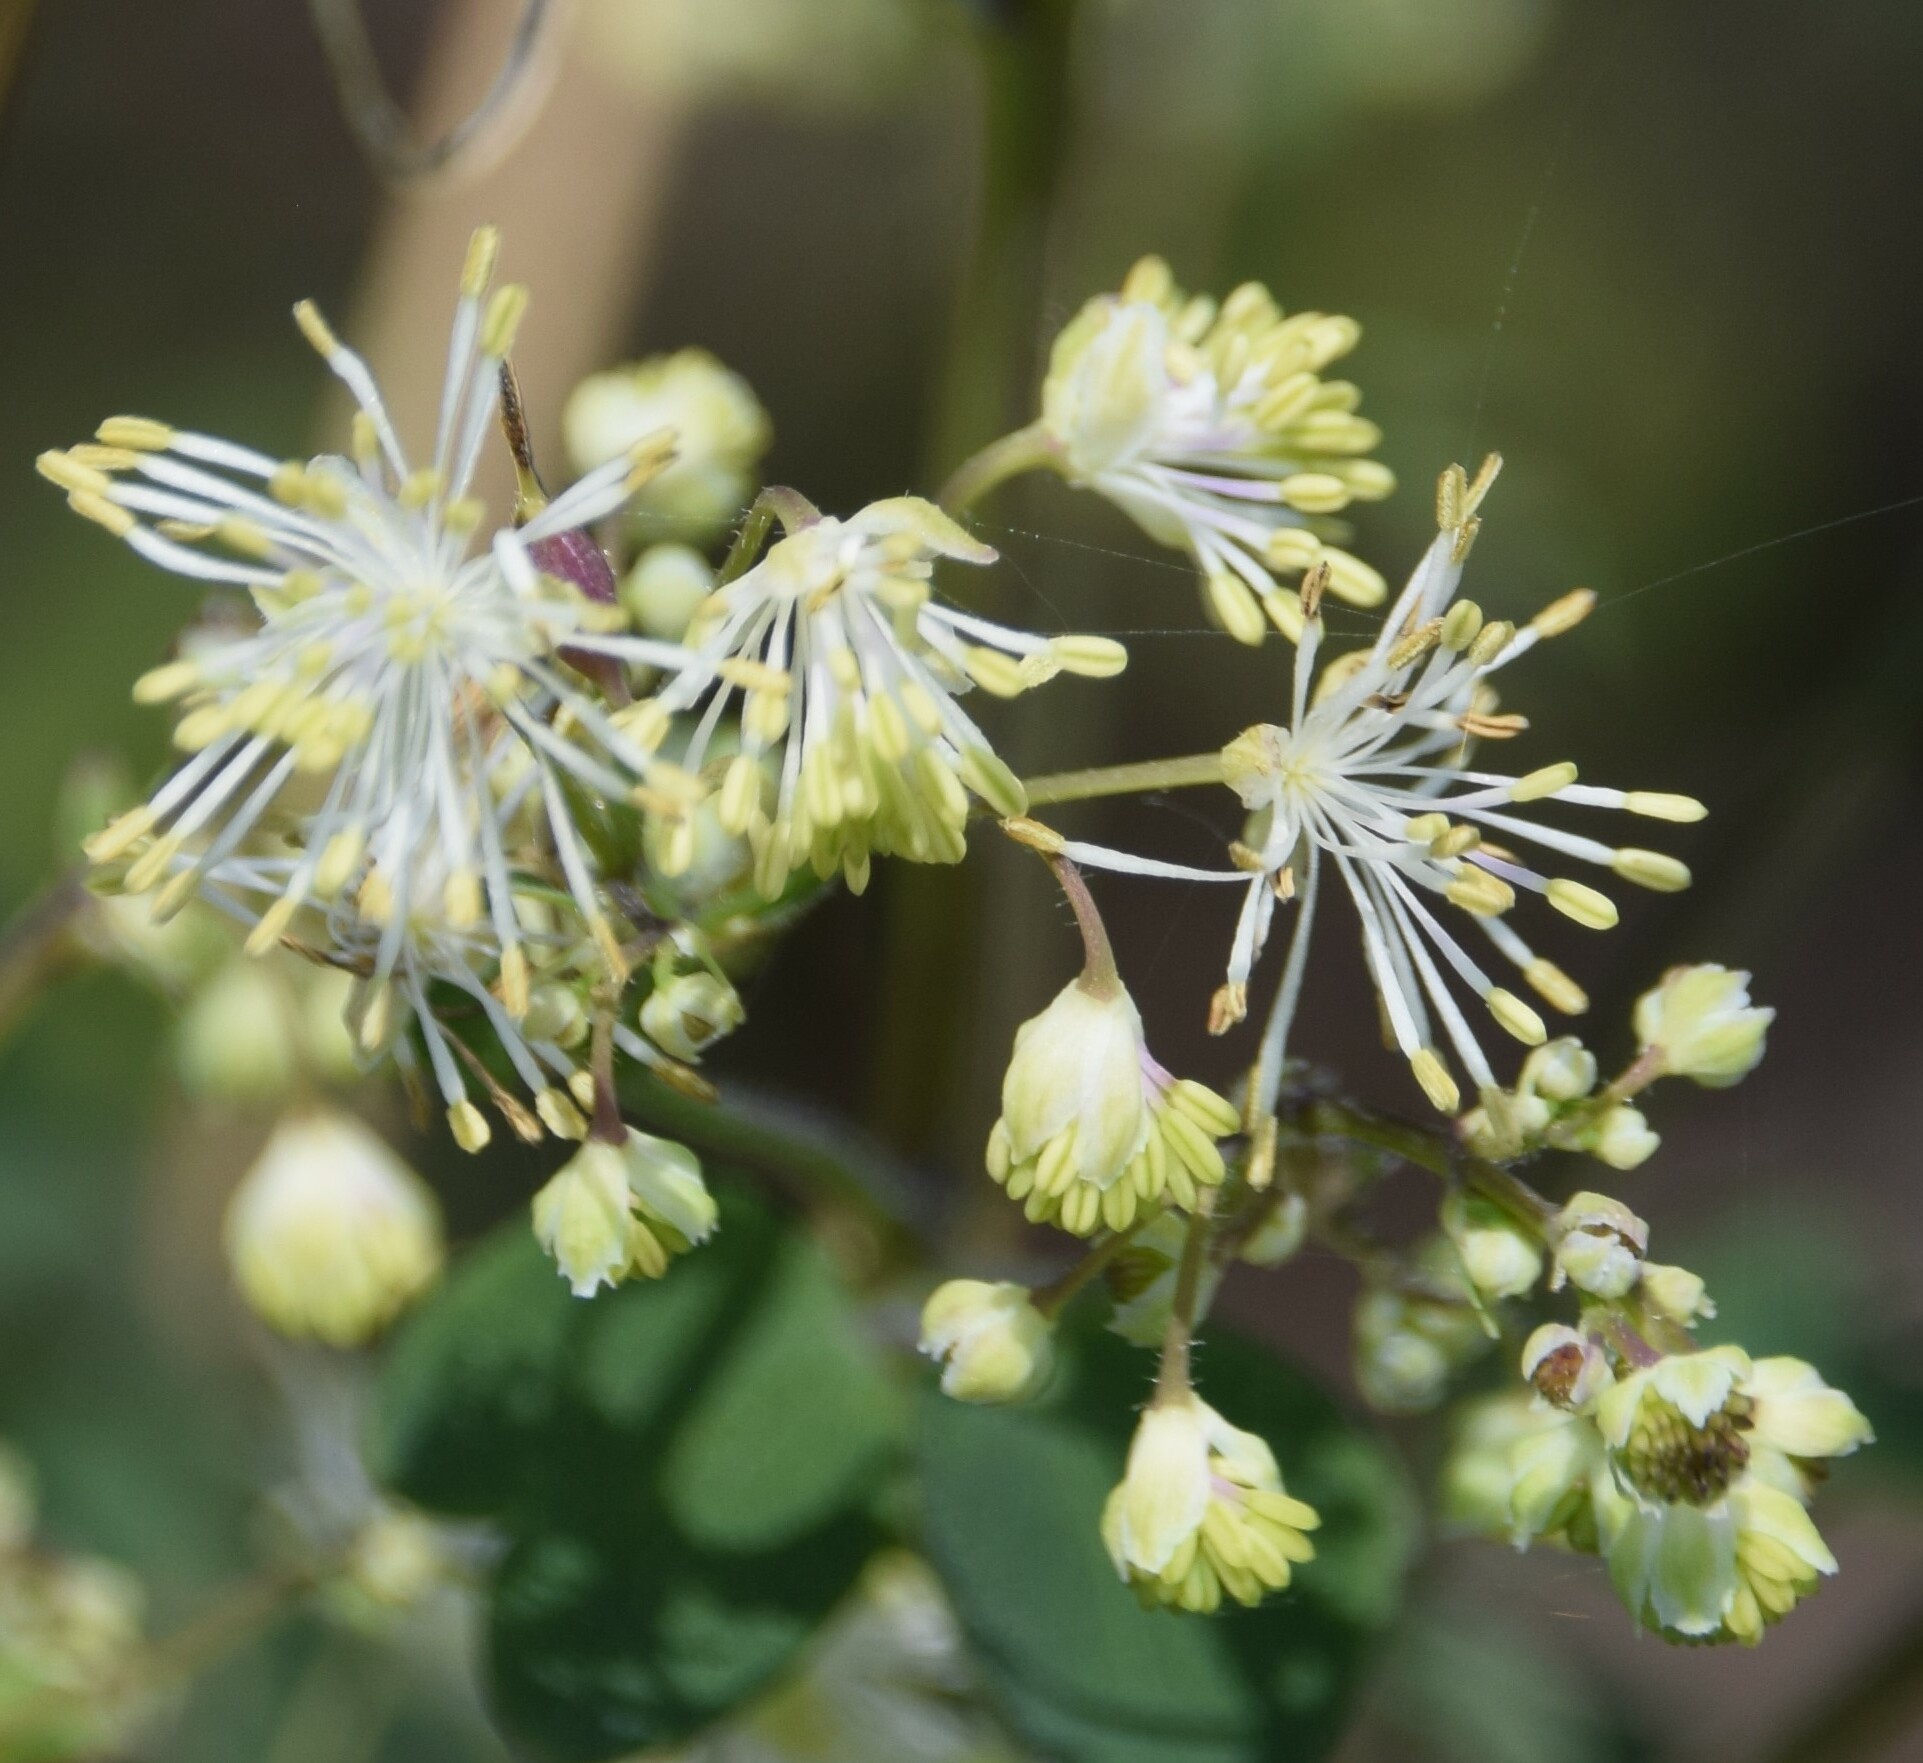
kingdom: Plantae
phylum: Tracheophyta
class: Magnoliopsida
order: Ranunculales
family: Ranunculaceae
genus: Thalictrum
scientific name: Thalictrum pubescens
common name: King-of-the-meadow
